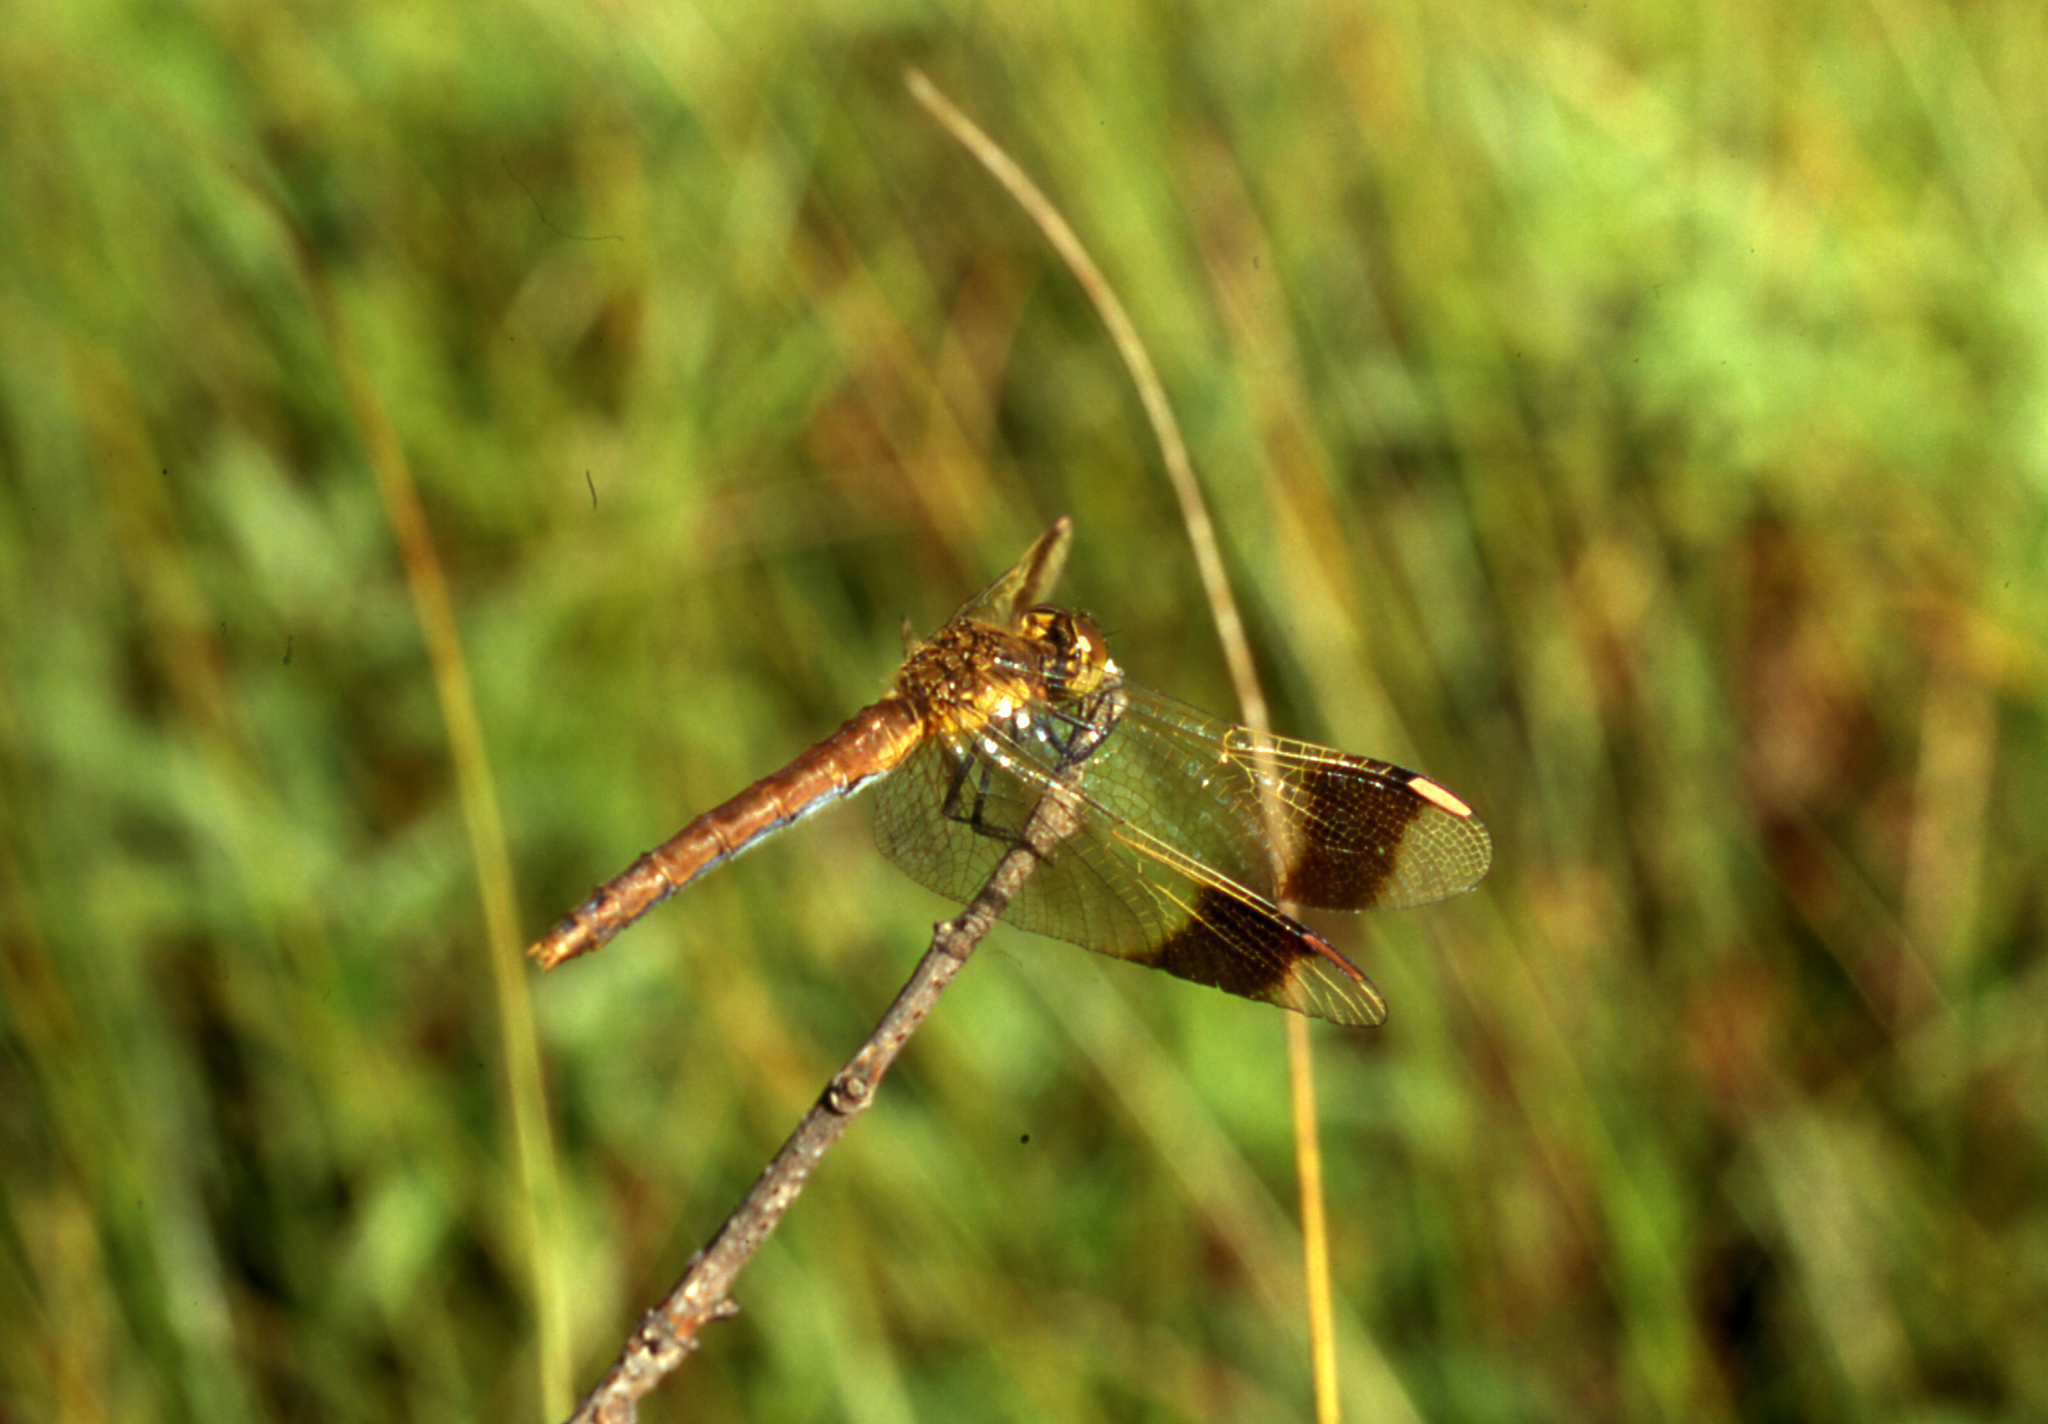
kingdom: Animalia
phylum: Arthropoda
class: Insecta
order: Odonata
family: Libellulidae
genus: Sympetrum
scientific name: Sympetrum pedemontanum
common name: Banded darter
